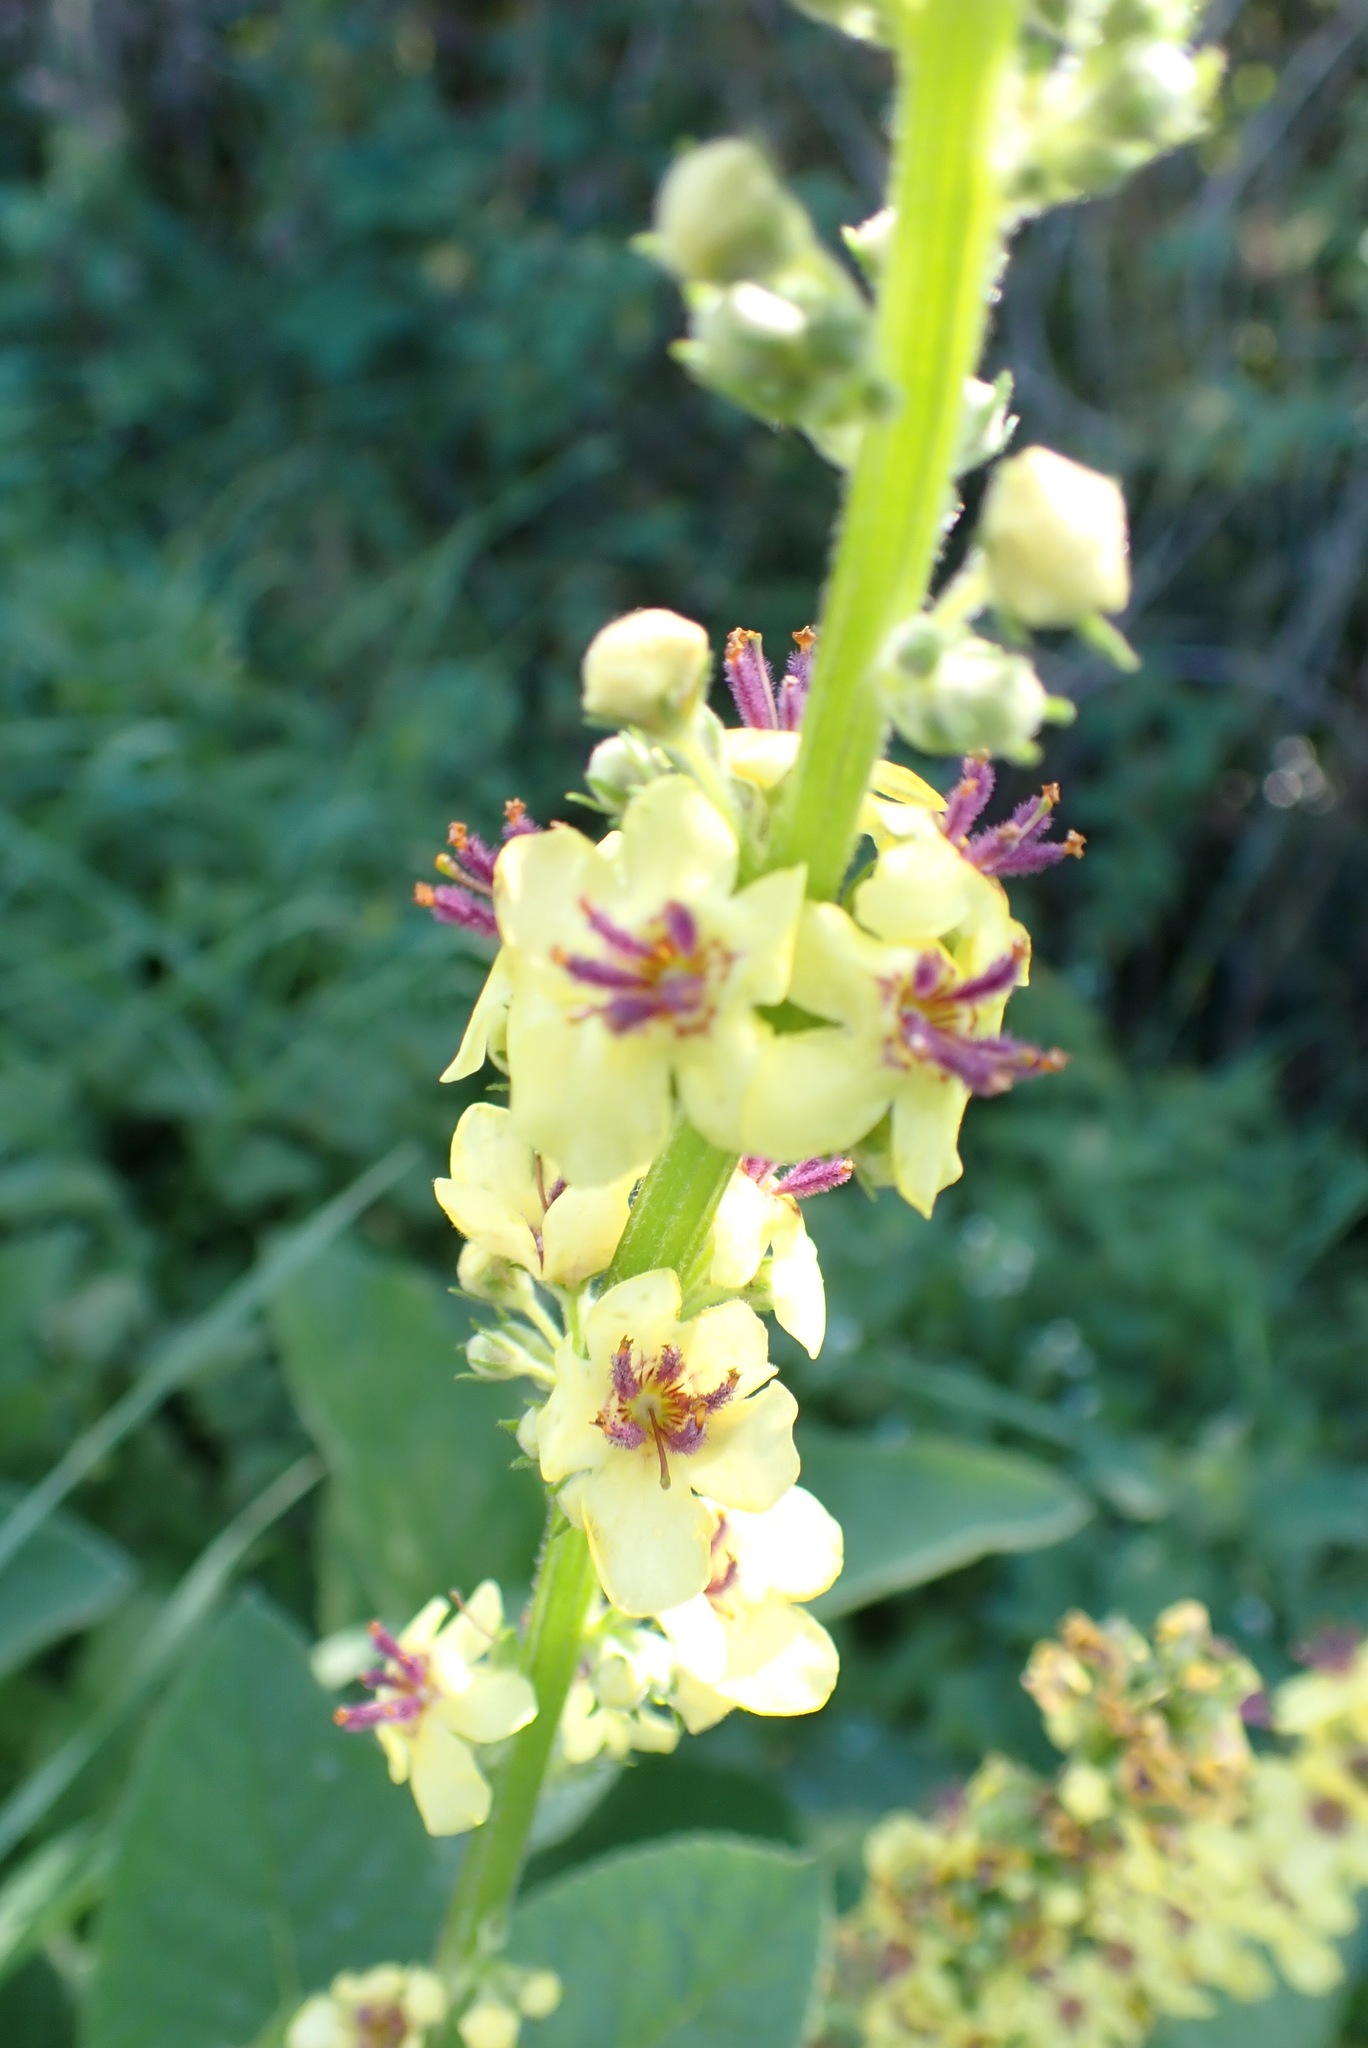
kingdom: Plantae
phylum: Tracheophyta
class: Magnoliopsida
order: Lamiales
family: Scrophulariaceae
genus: Verbascum
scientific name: Verbascum nigrum
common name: Dark mullein
